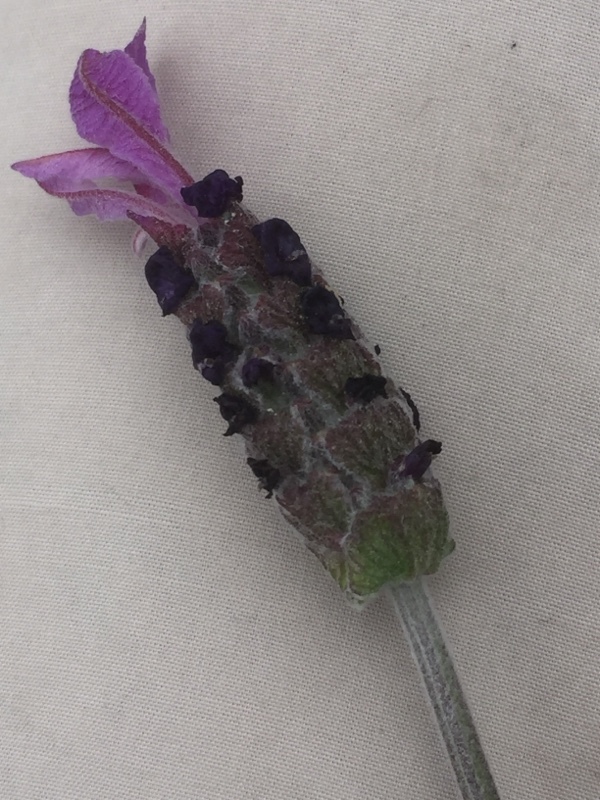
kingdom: Plantae
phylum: Tracheophyta
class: Magnoliopsida
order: Lamiales
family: Lamiaceae
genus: Lavandula
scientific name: Lavandula pedunculata
